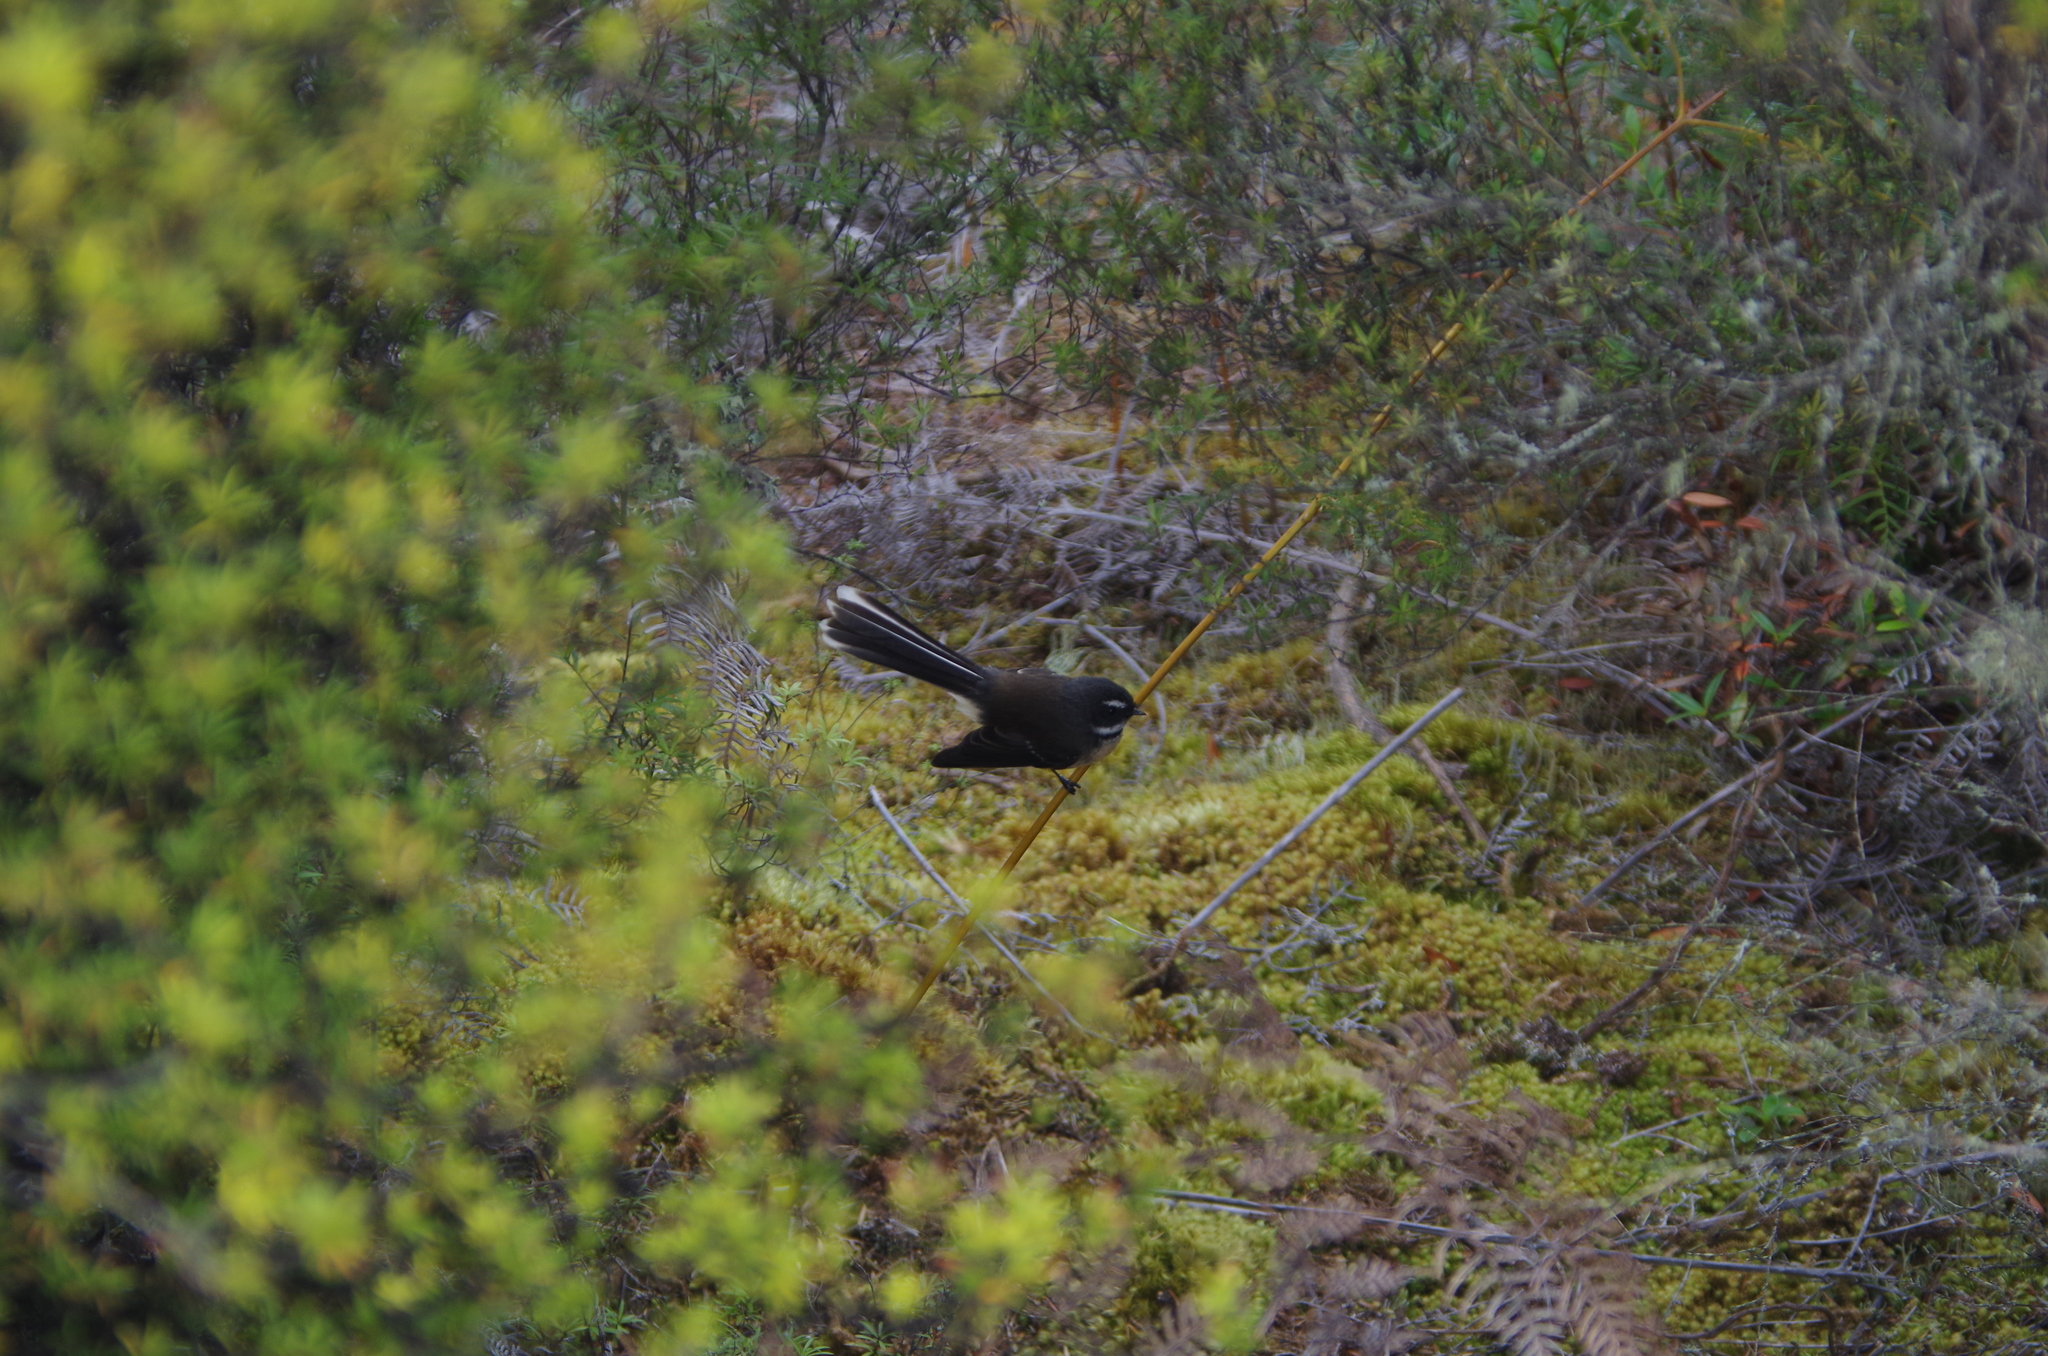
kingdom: Animalia
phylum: Chordata
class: Aves
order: Passeriformes
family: Rhipiduridae
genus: Rhipidura
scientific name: Rhipidura fuliginosa
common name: New zealand fantail
